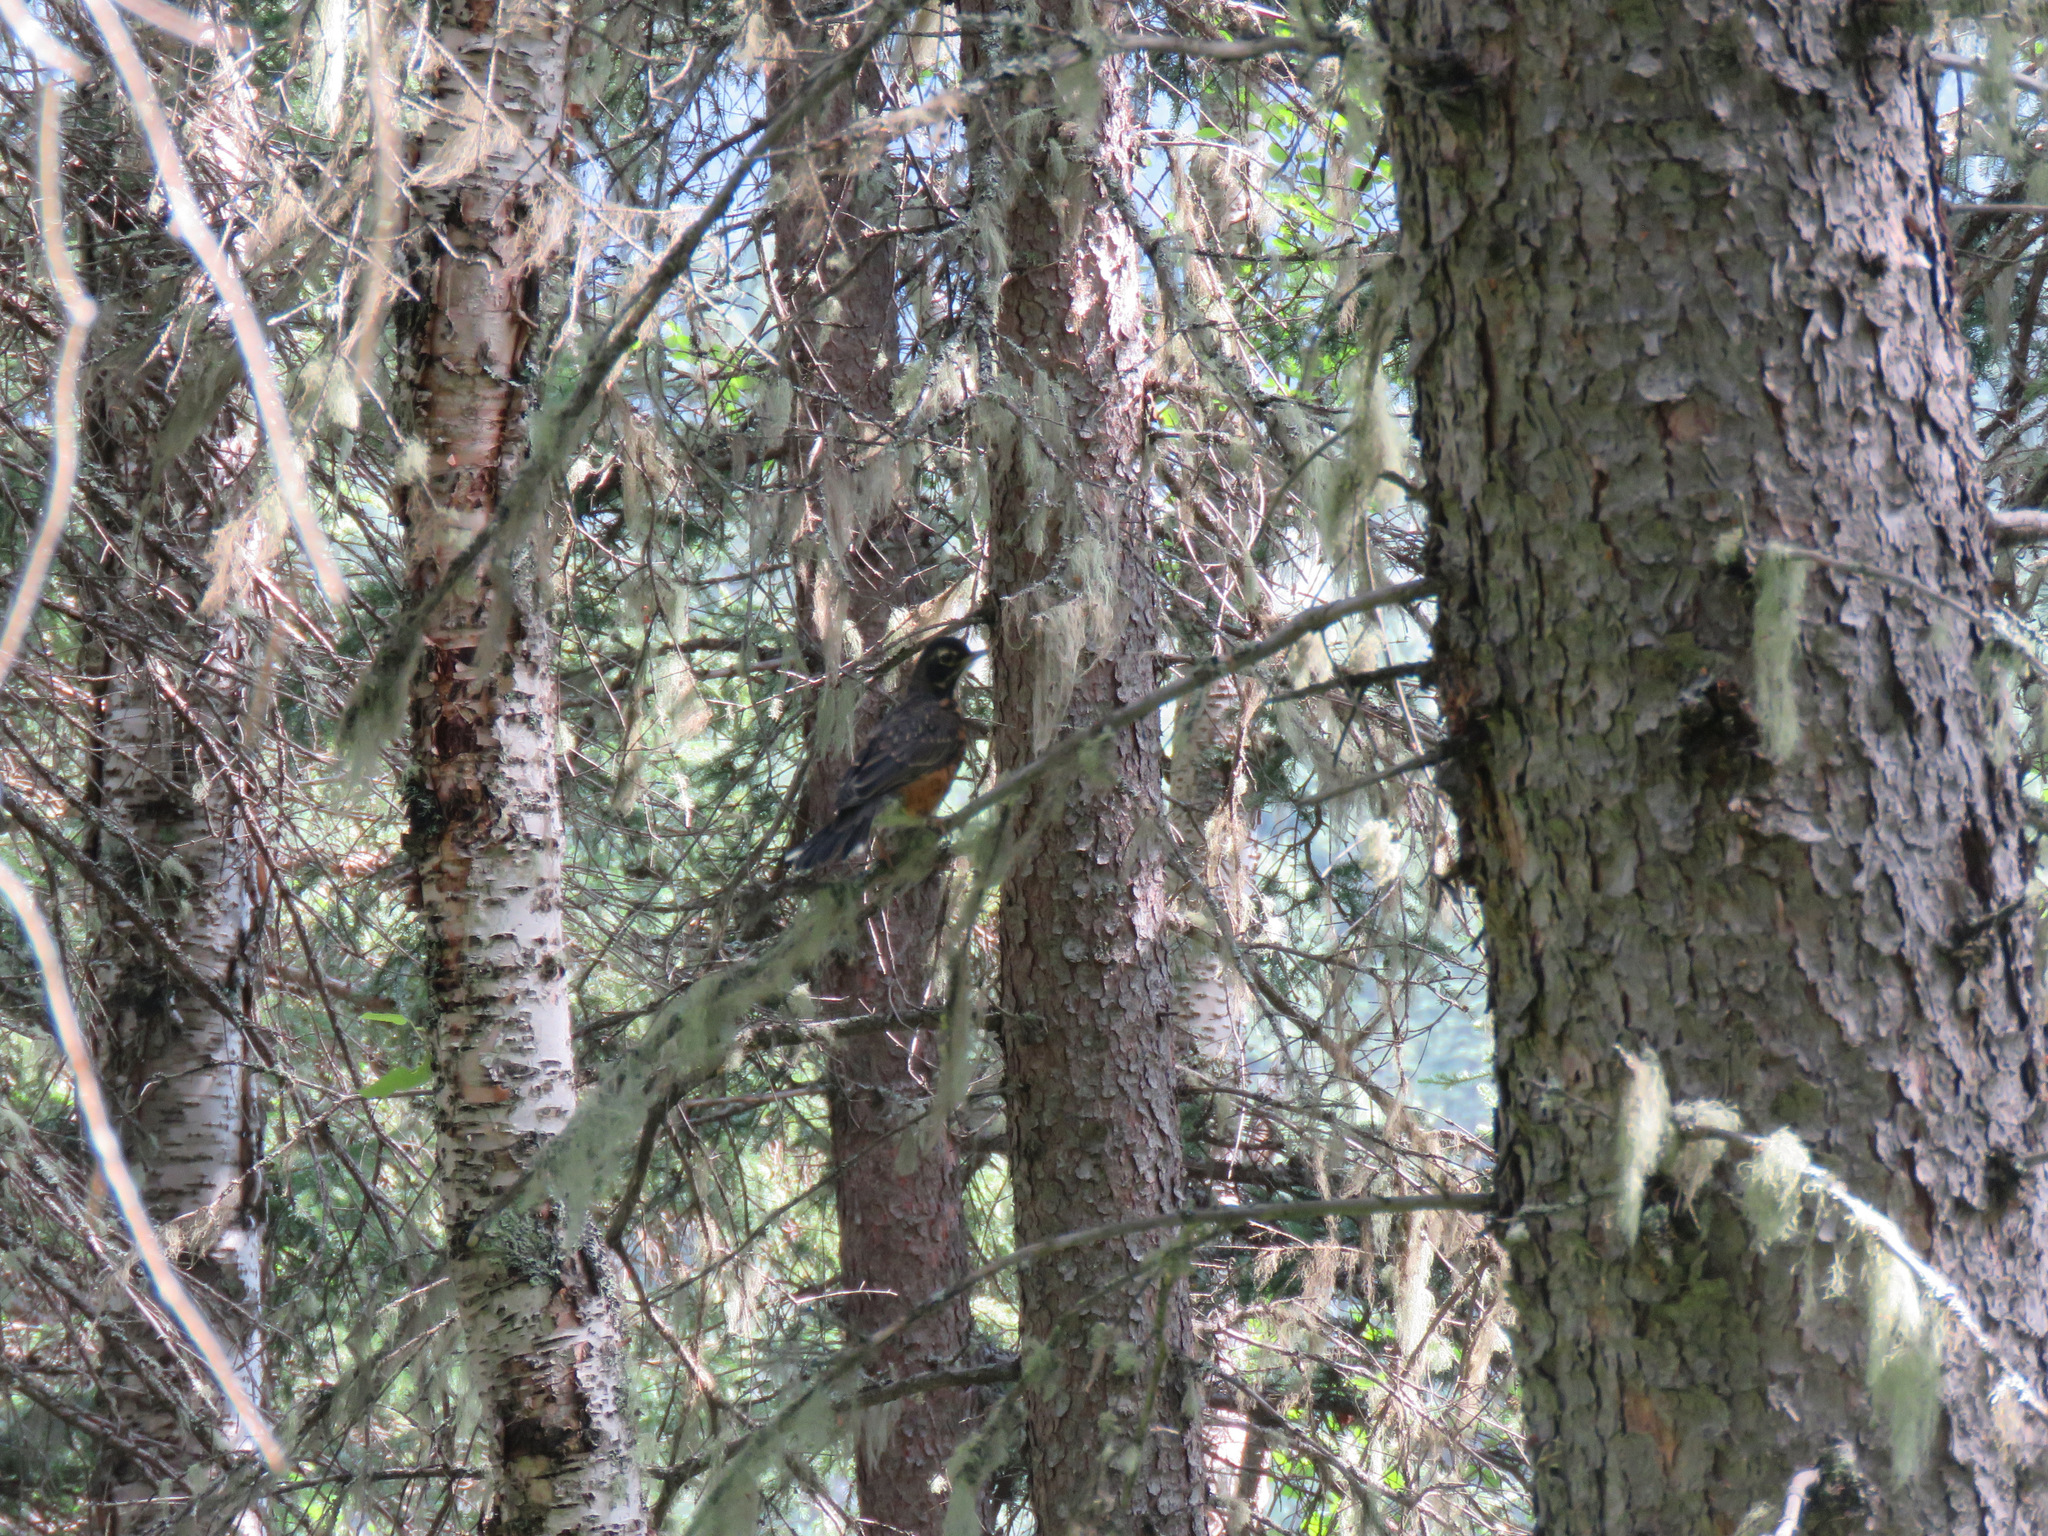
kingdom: Animalia
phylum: Chordata
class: Aves
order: Passeriformes
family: Turdidae
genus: Turdus
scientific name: Turdus migratorius
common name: American robin
